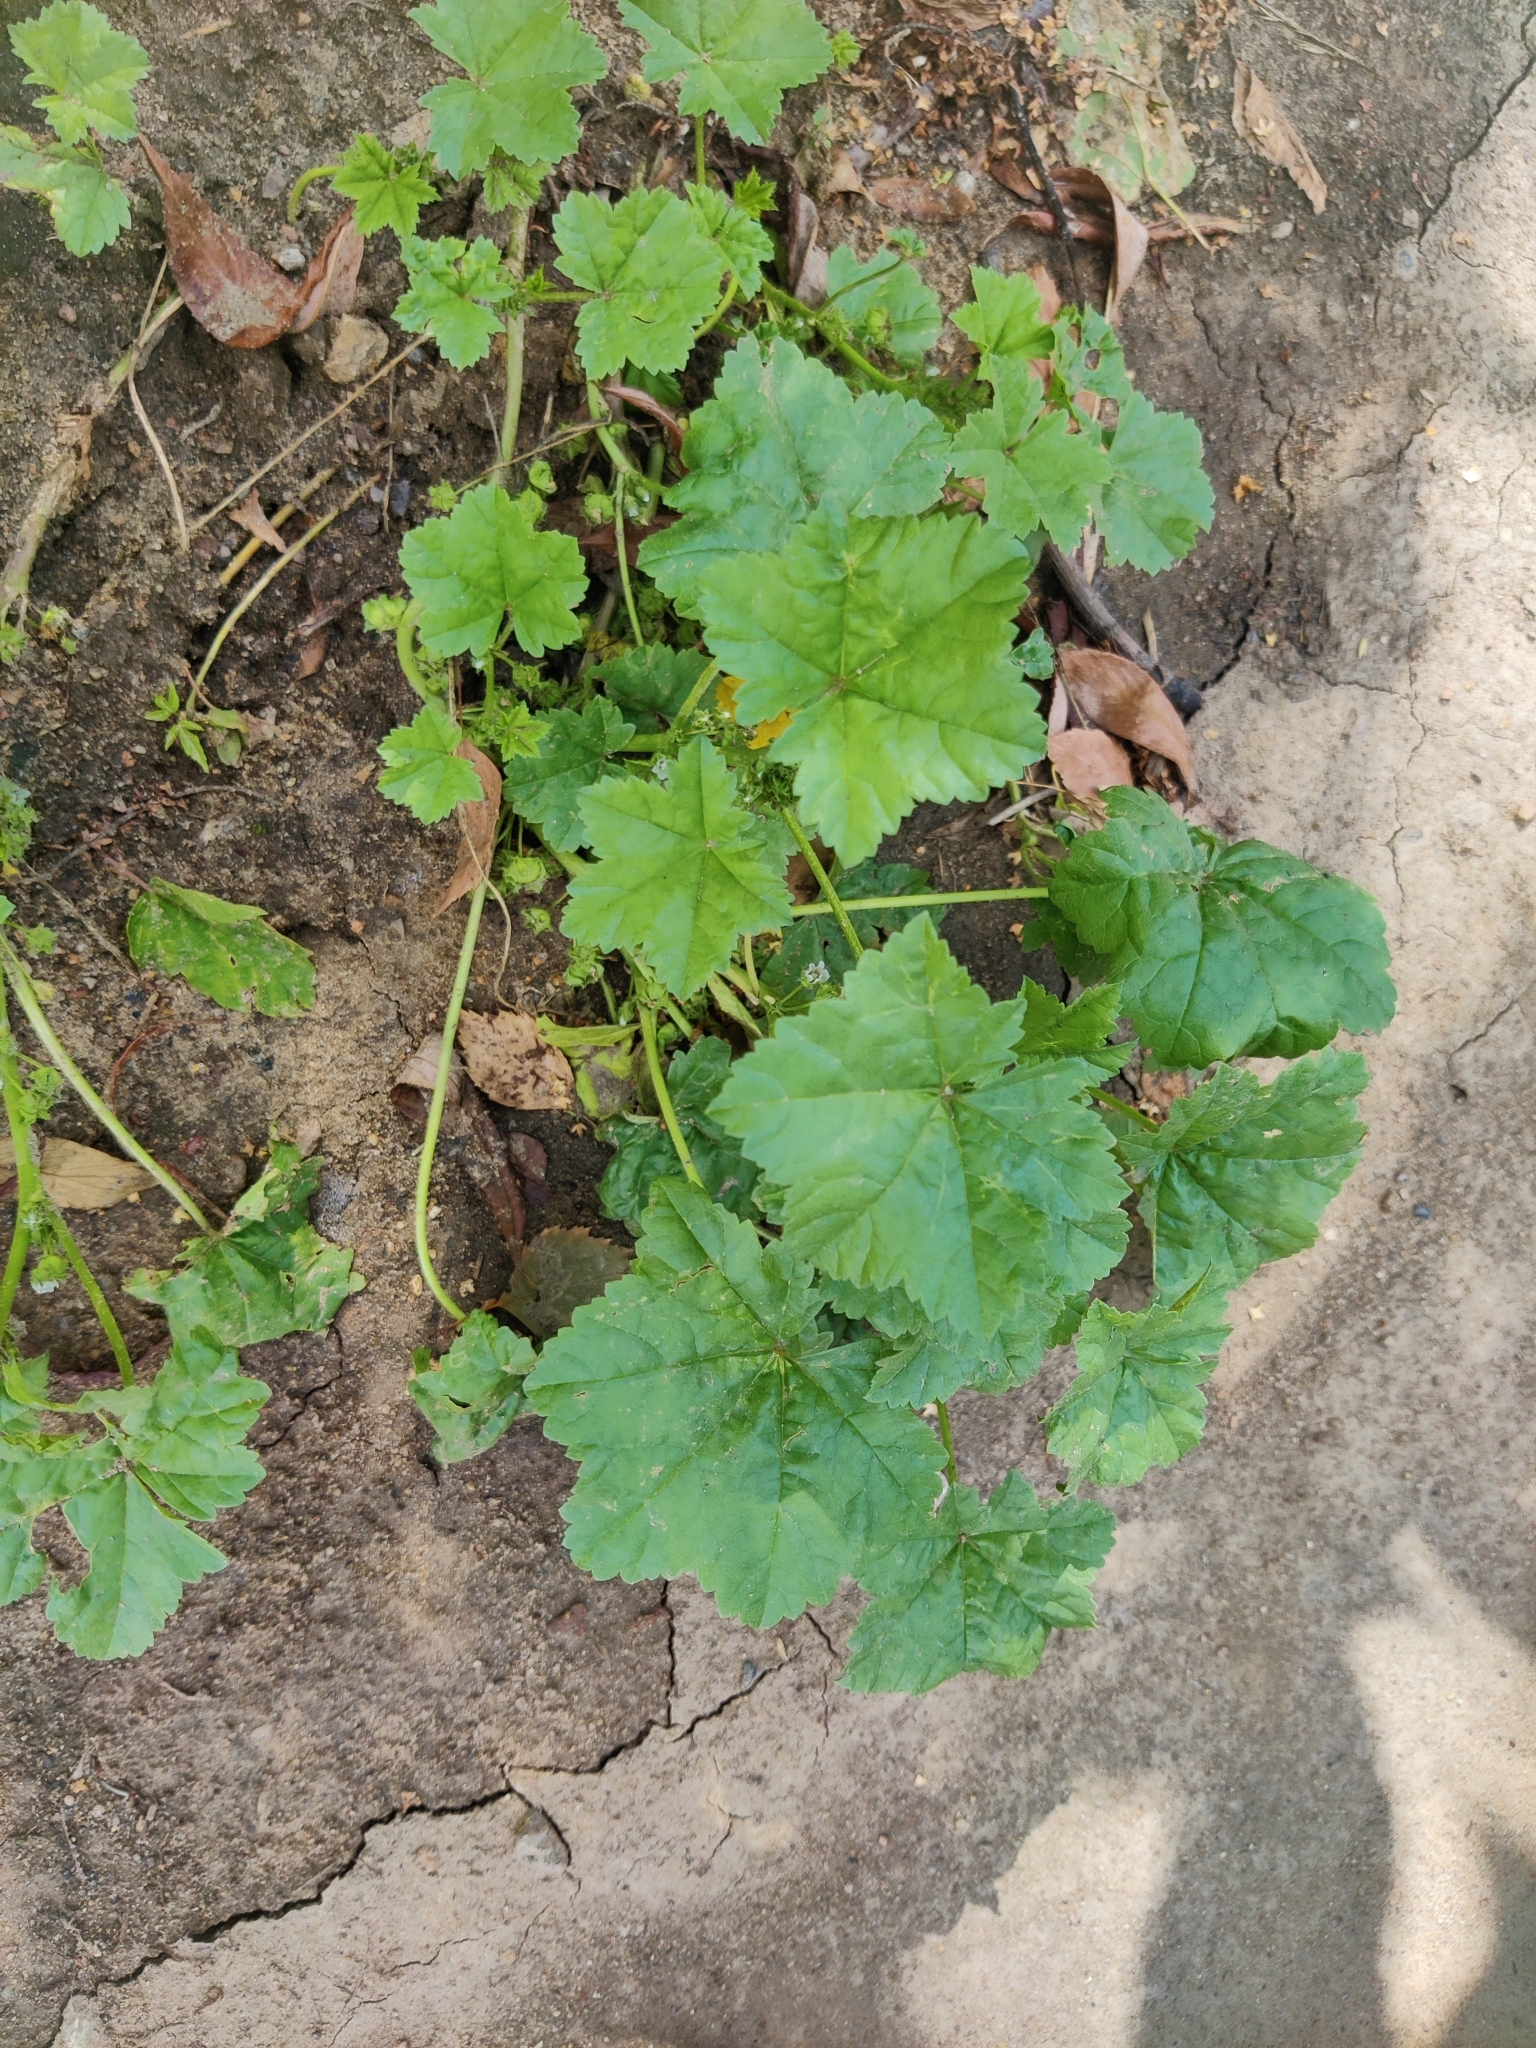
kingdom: Plantae
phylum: Tracheophyta
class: Magnoliopsida
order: Malvales
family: Malvaceae
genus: Malva
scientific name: Malva pusilla
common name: Small mallow
